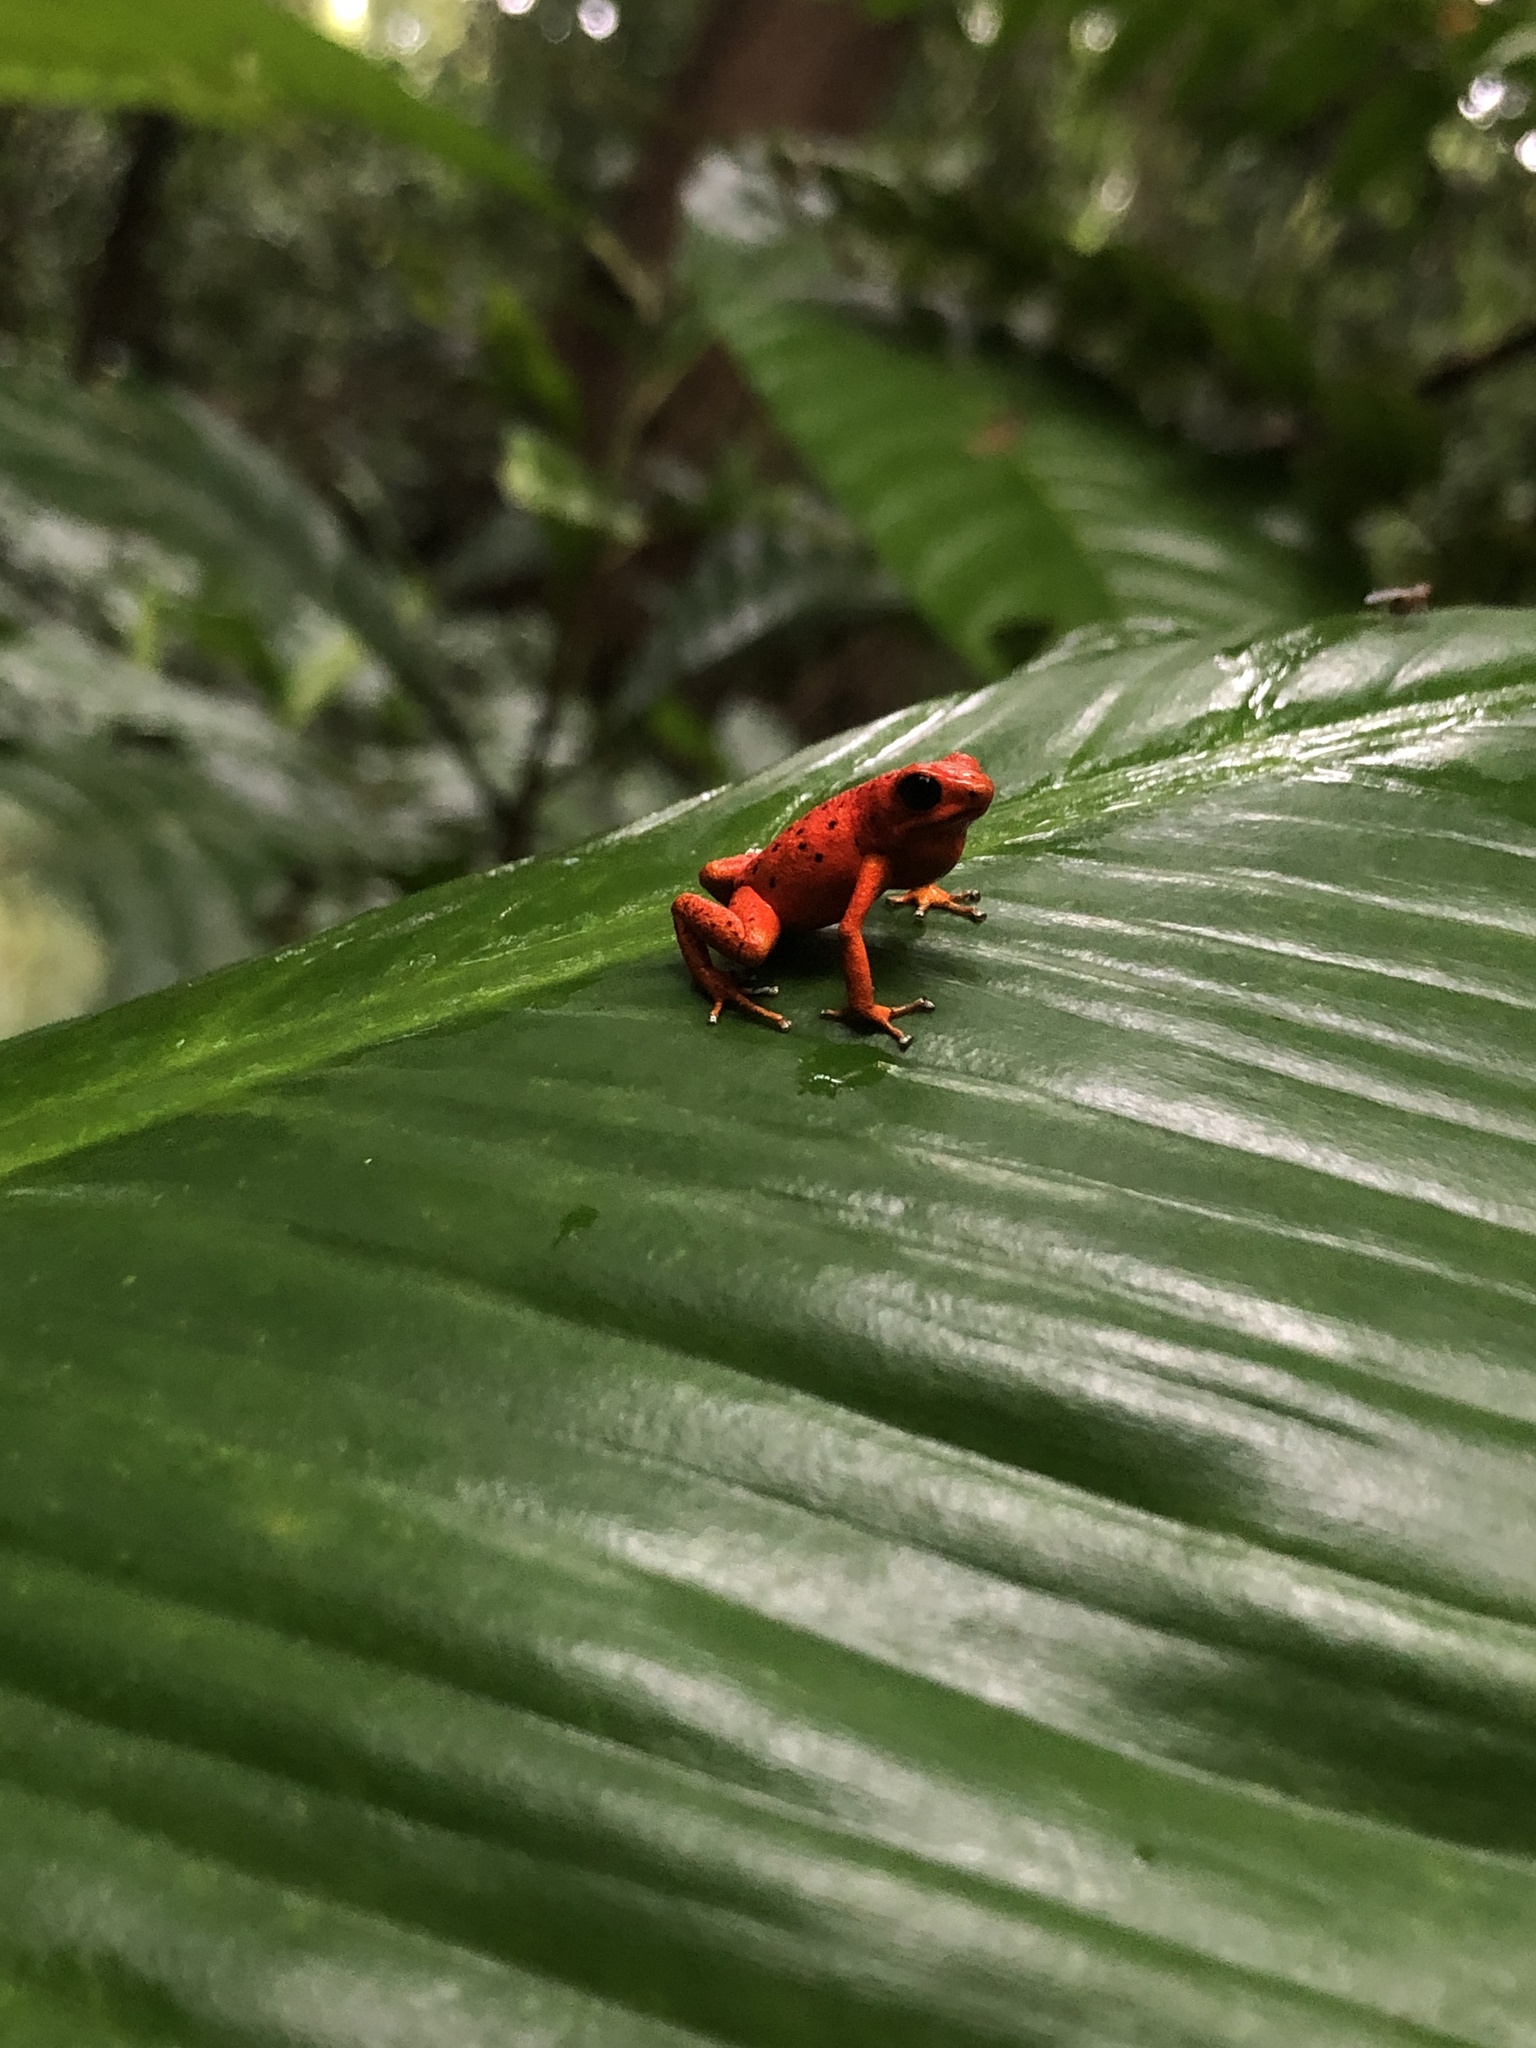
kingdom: Animalia
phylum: Chordata
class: Amphibia
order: Anura
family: Dendrobatidae
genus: Oophaga
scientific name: Oophaga pumilio
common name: Flaming poison frog
